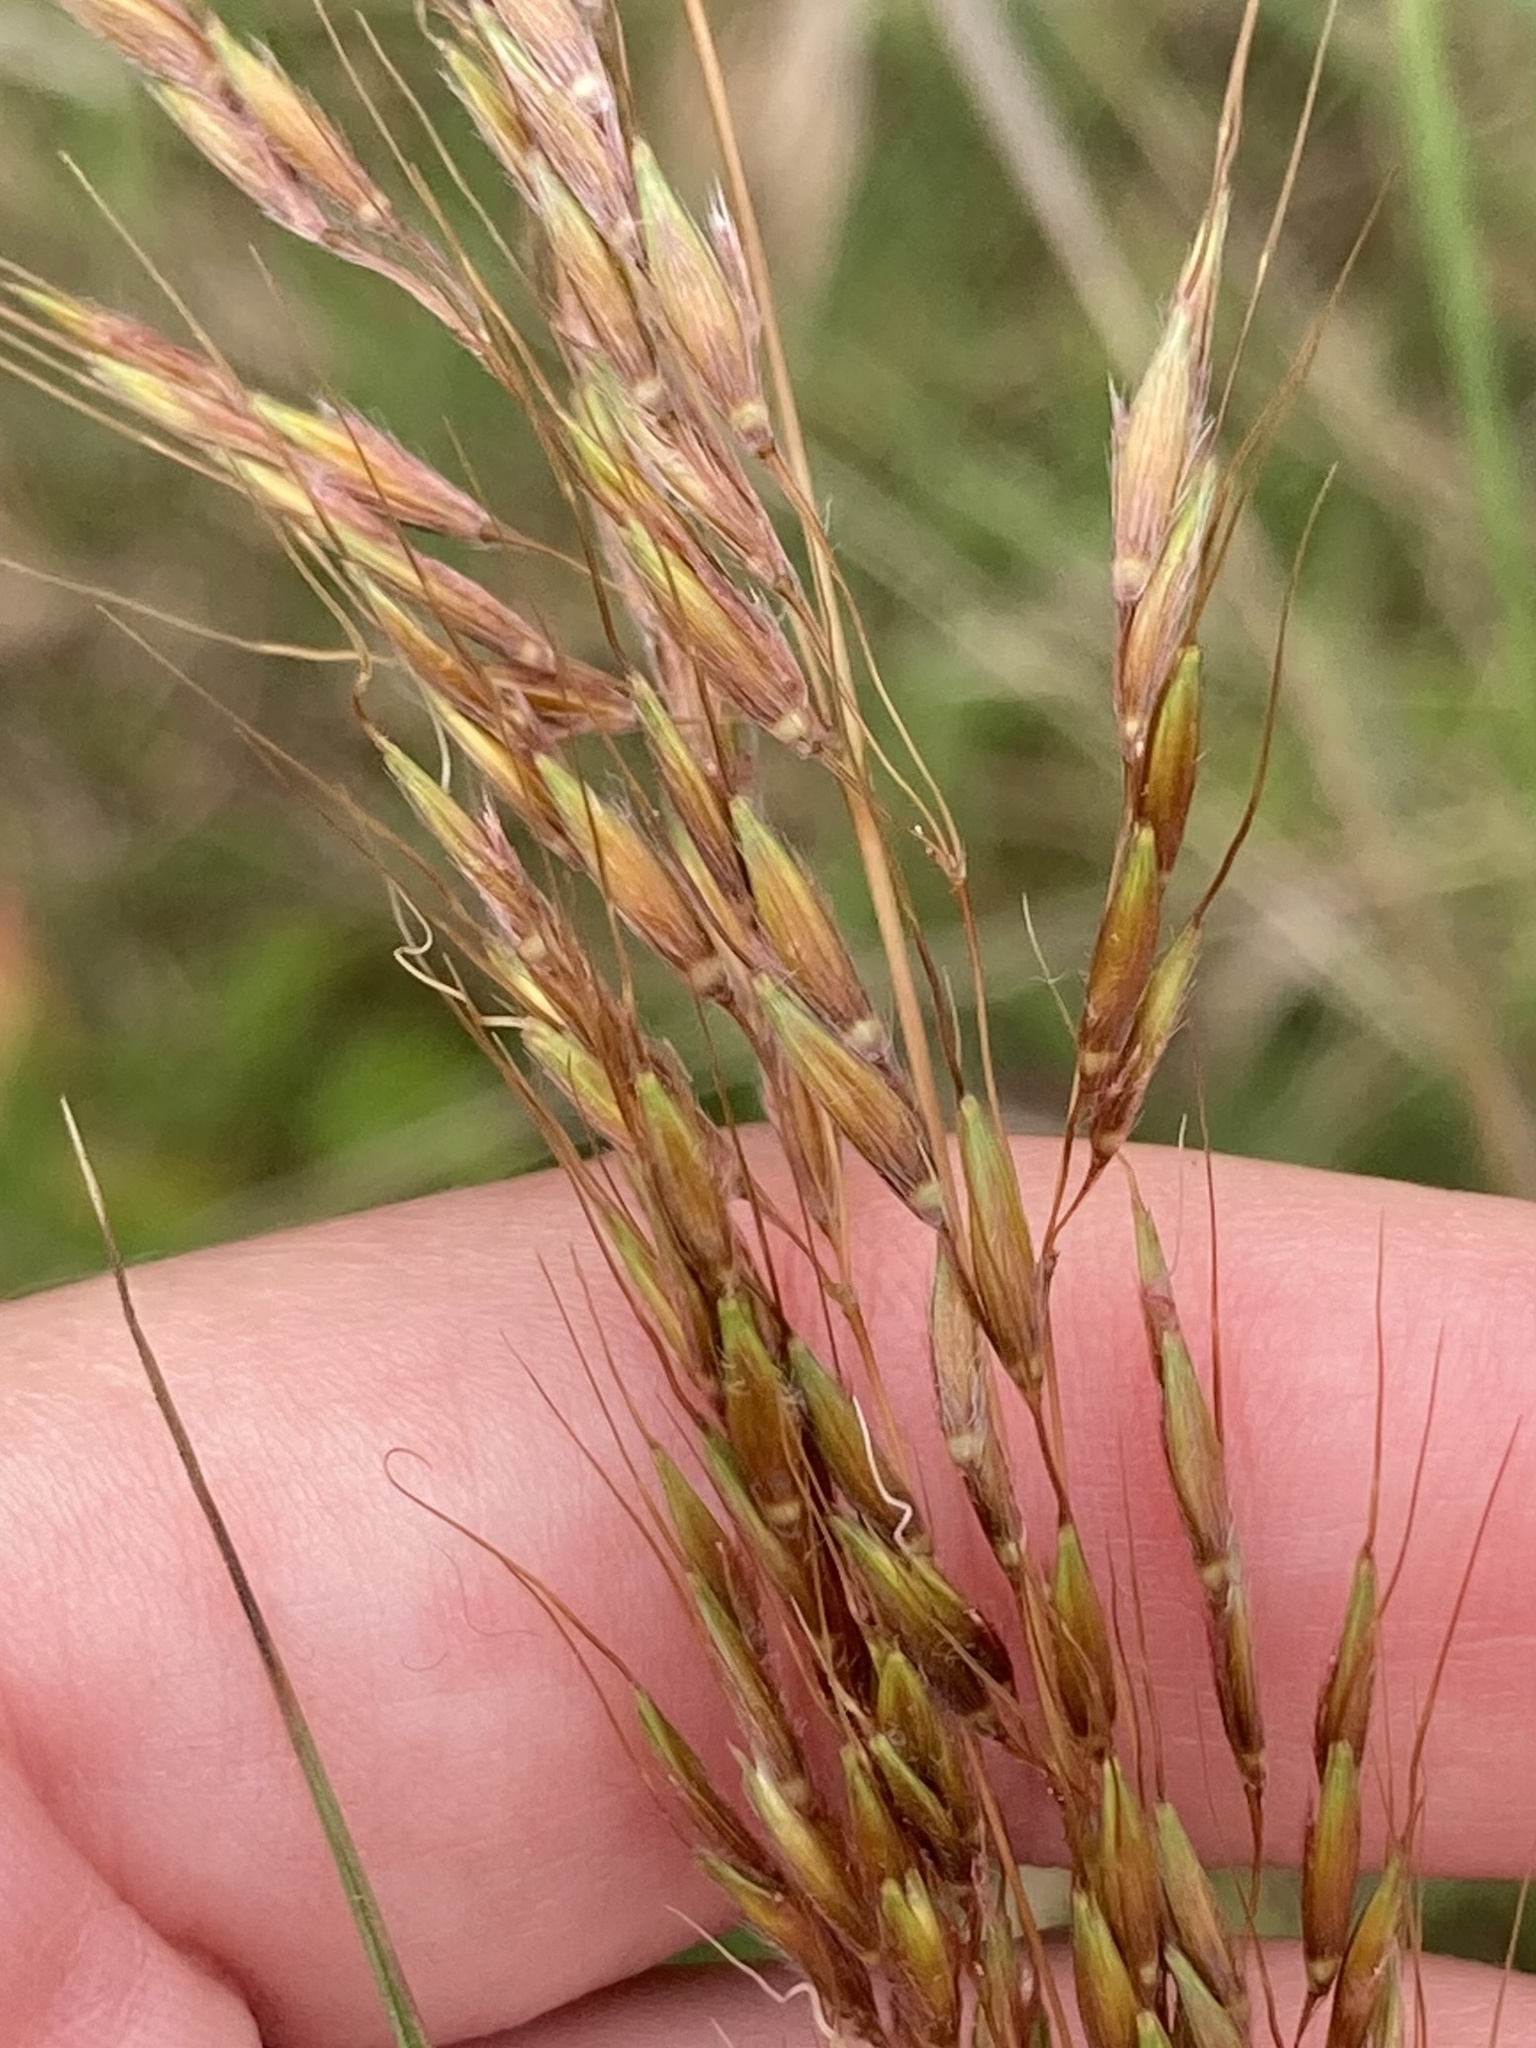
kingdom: Plantae
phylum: Tracheophyta
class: Liliopsida
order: Poales
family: Poaceae
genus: Sorghastrum
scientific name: Sorghastrum nutans
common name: Indian grass
